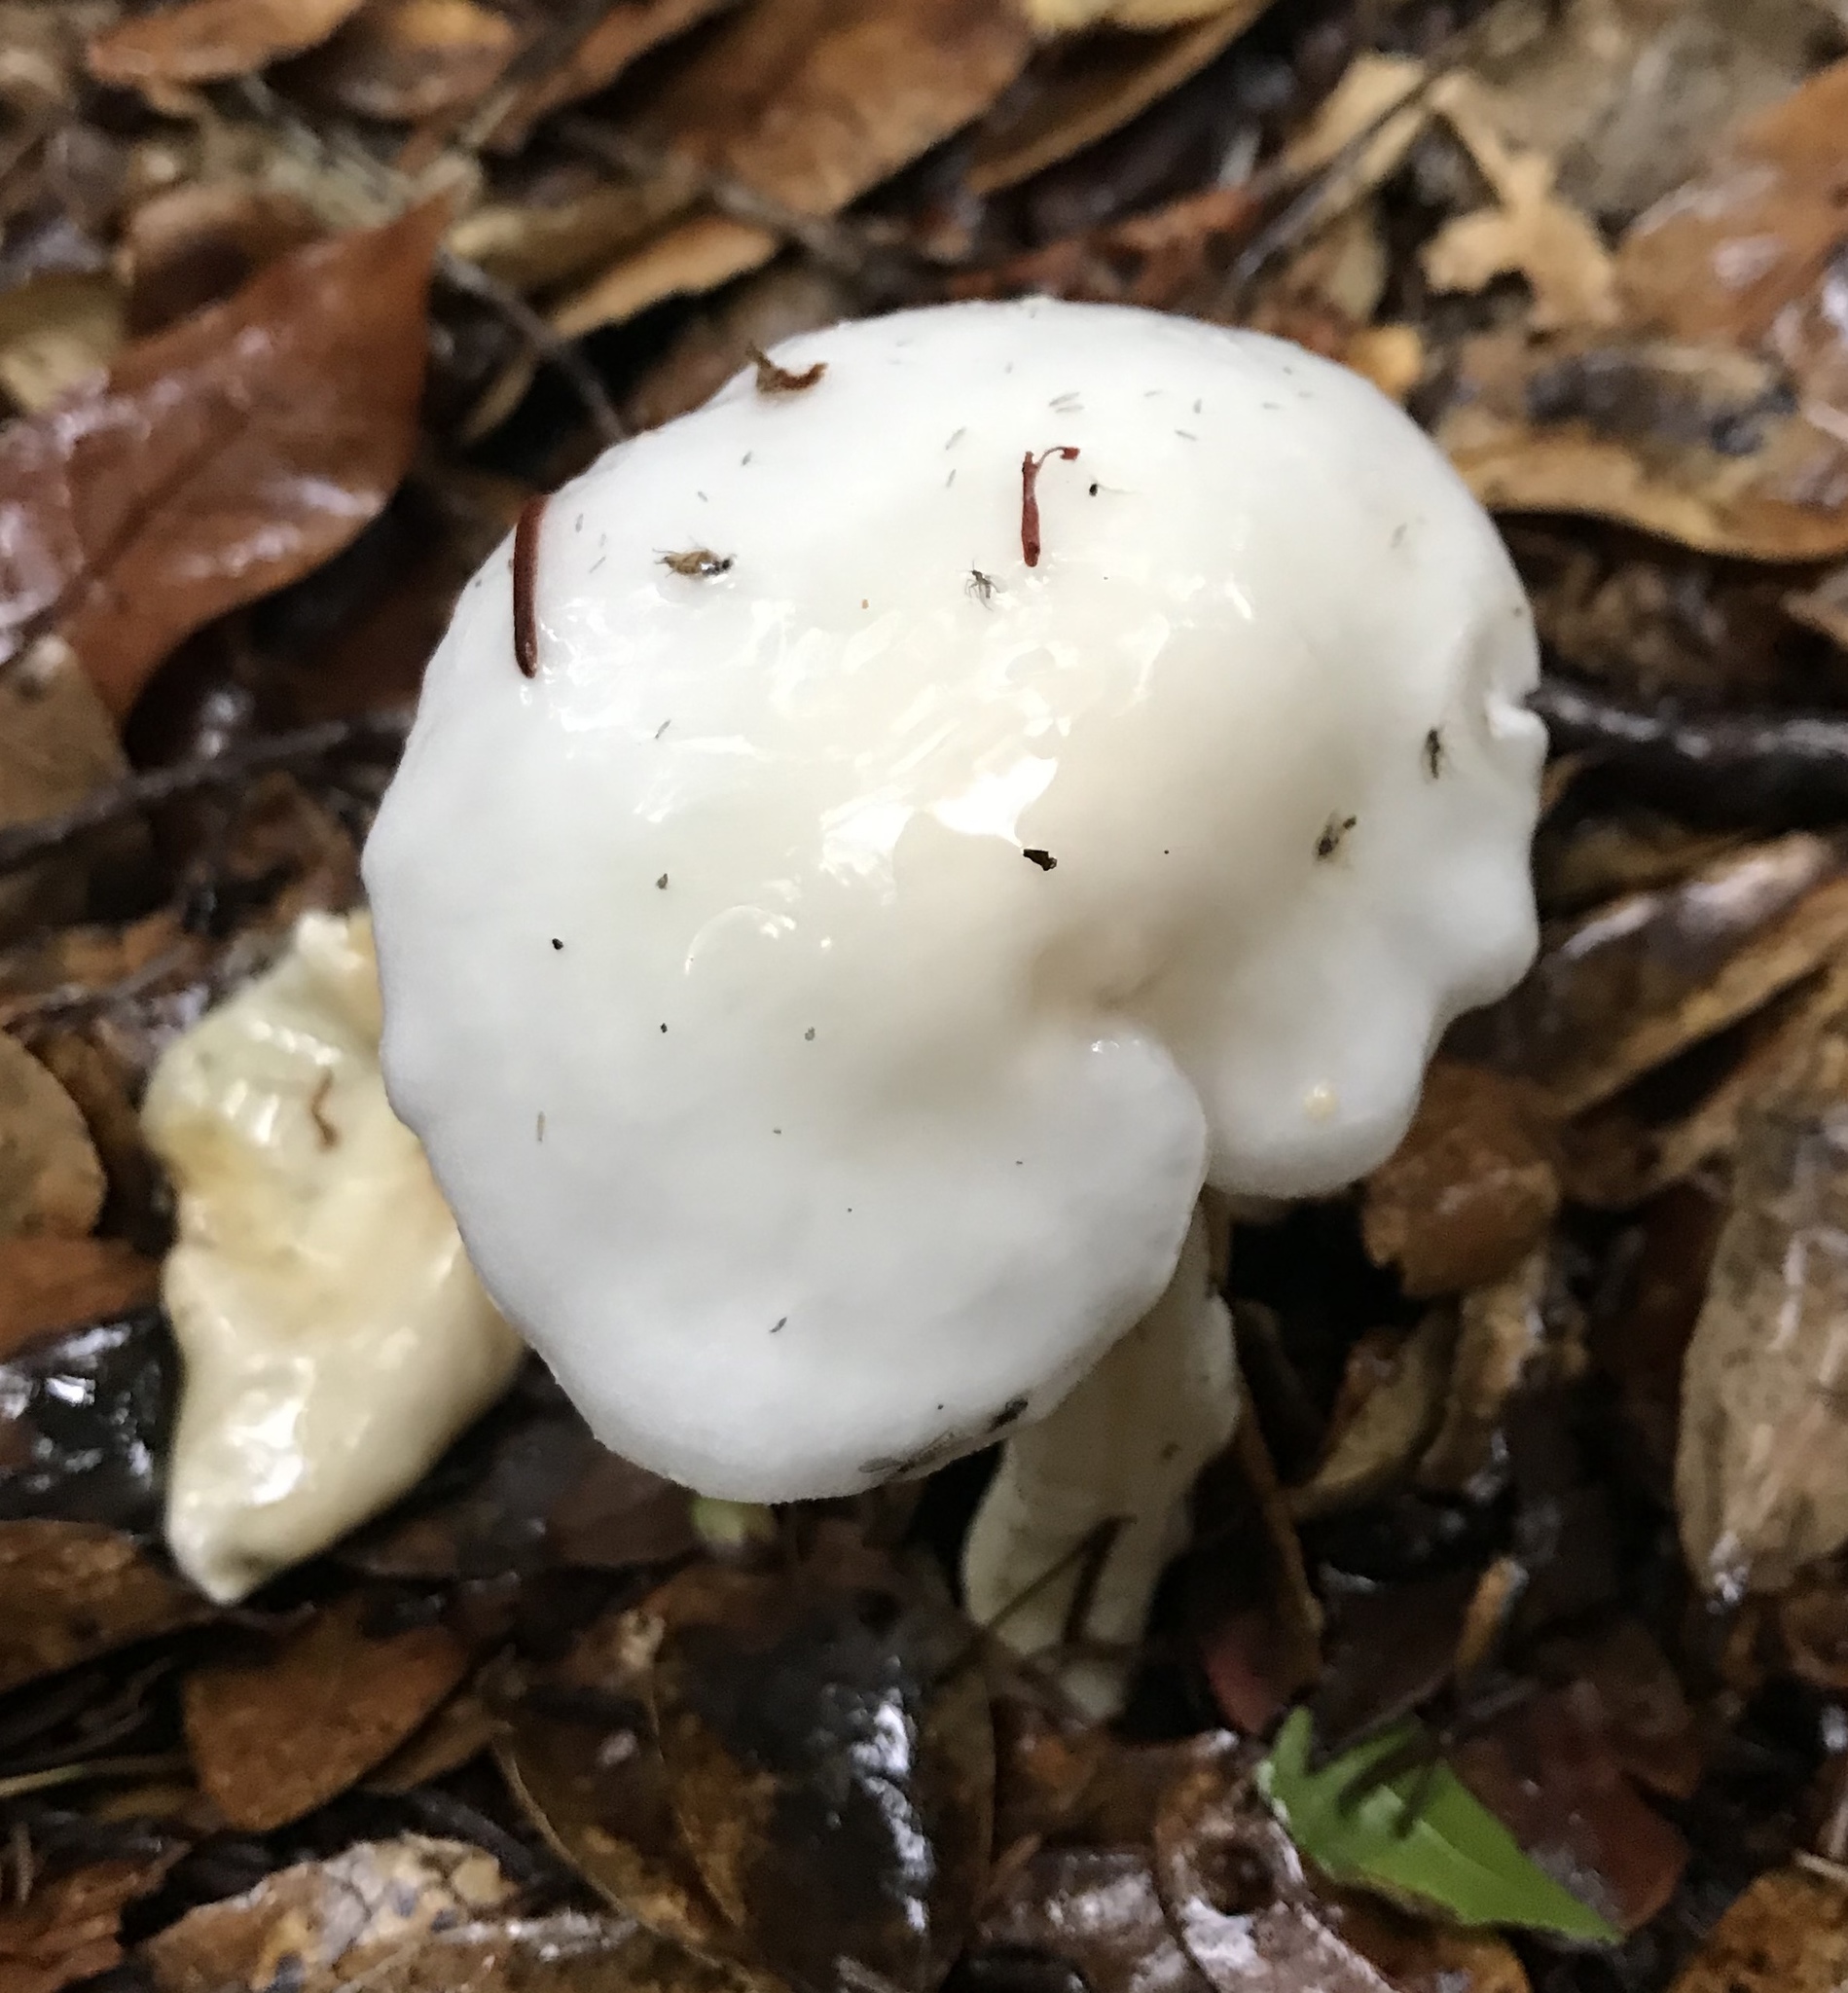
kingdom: Fungi
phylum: Basidiomycota
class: Agaricomycetes
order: Agaricales
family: Hygrophoraceae
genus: Hygrophorus
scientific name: Hygrophorus eburneus
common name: Ivory wax-cap
